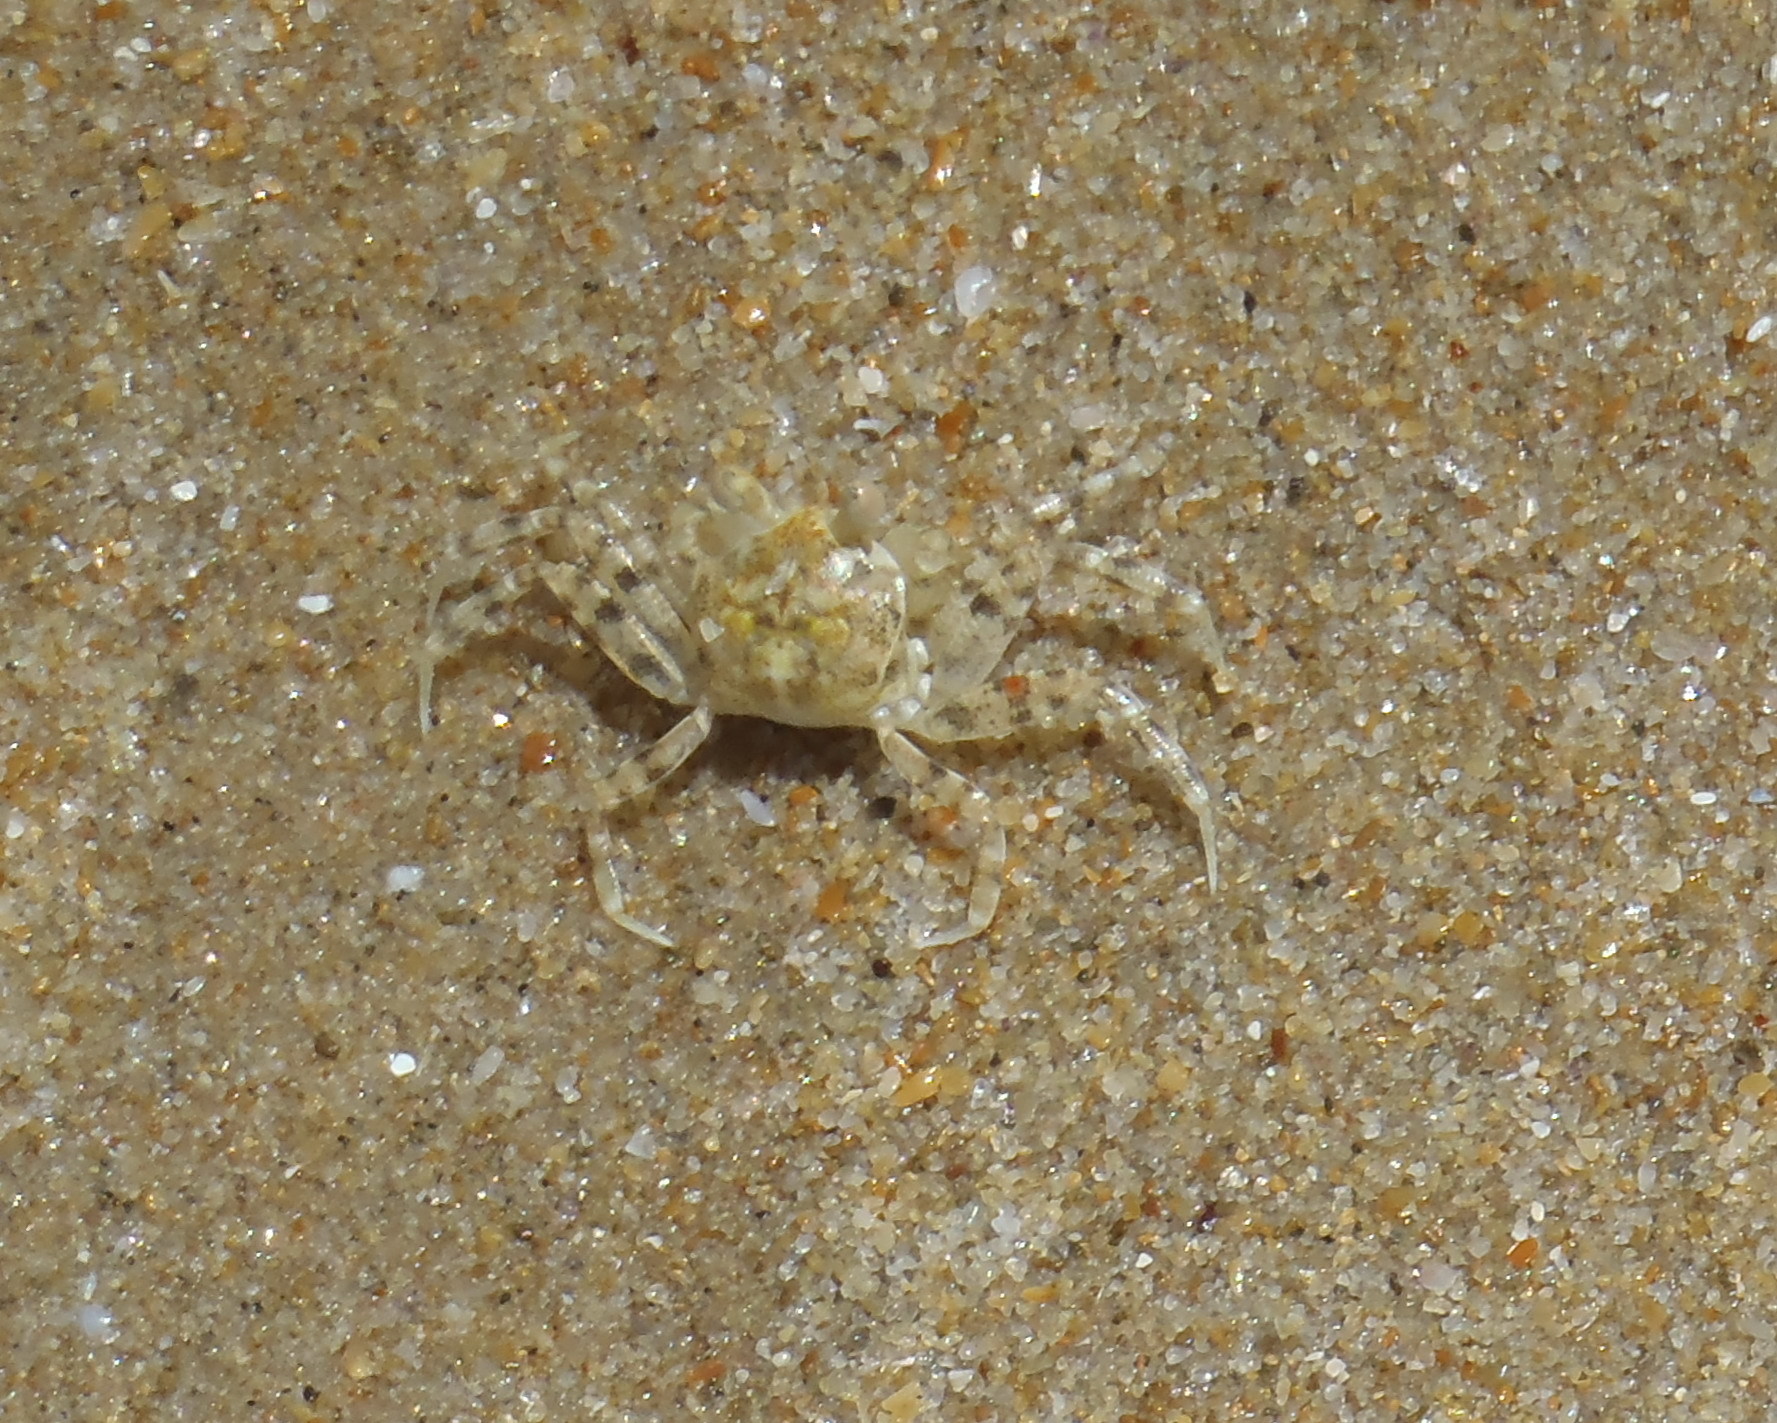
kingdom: Animalia
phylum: Arthropoda
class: Malacostraca
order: Decapoda
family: Ocypodidae
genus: Ocypode
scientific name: Ocypode
